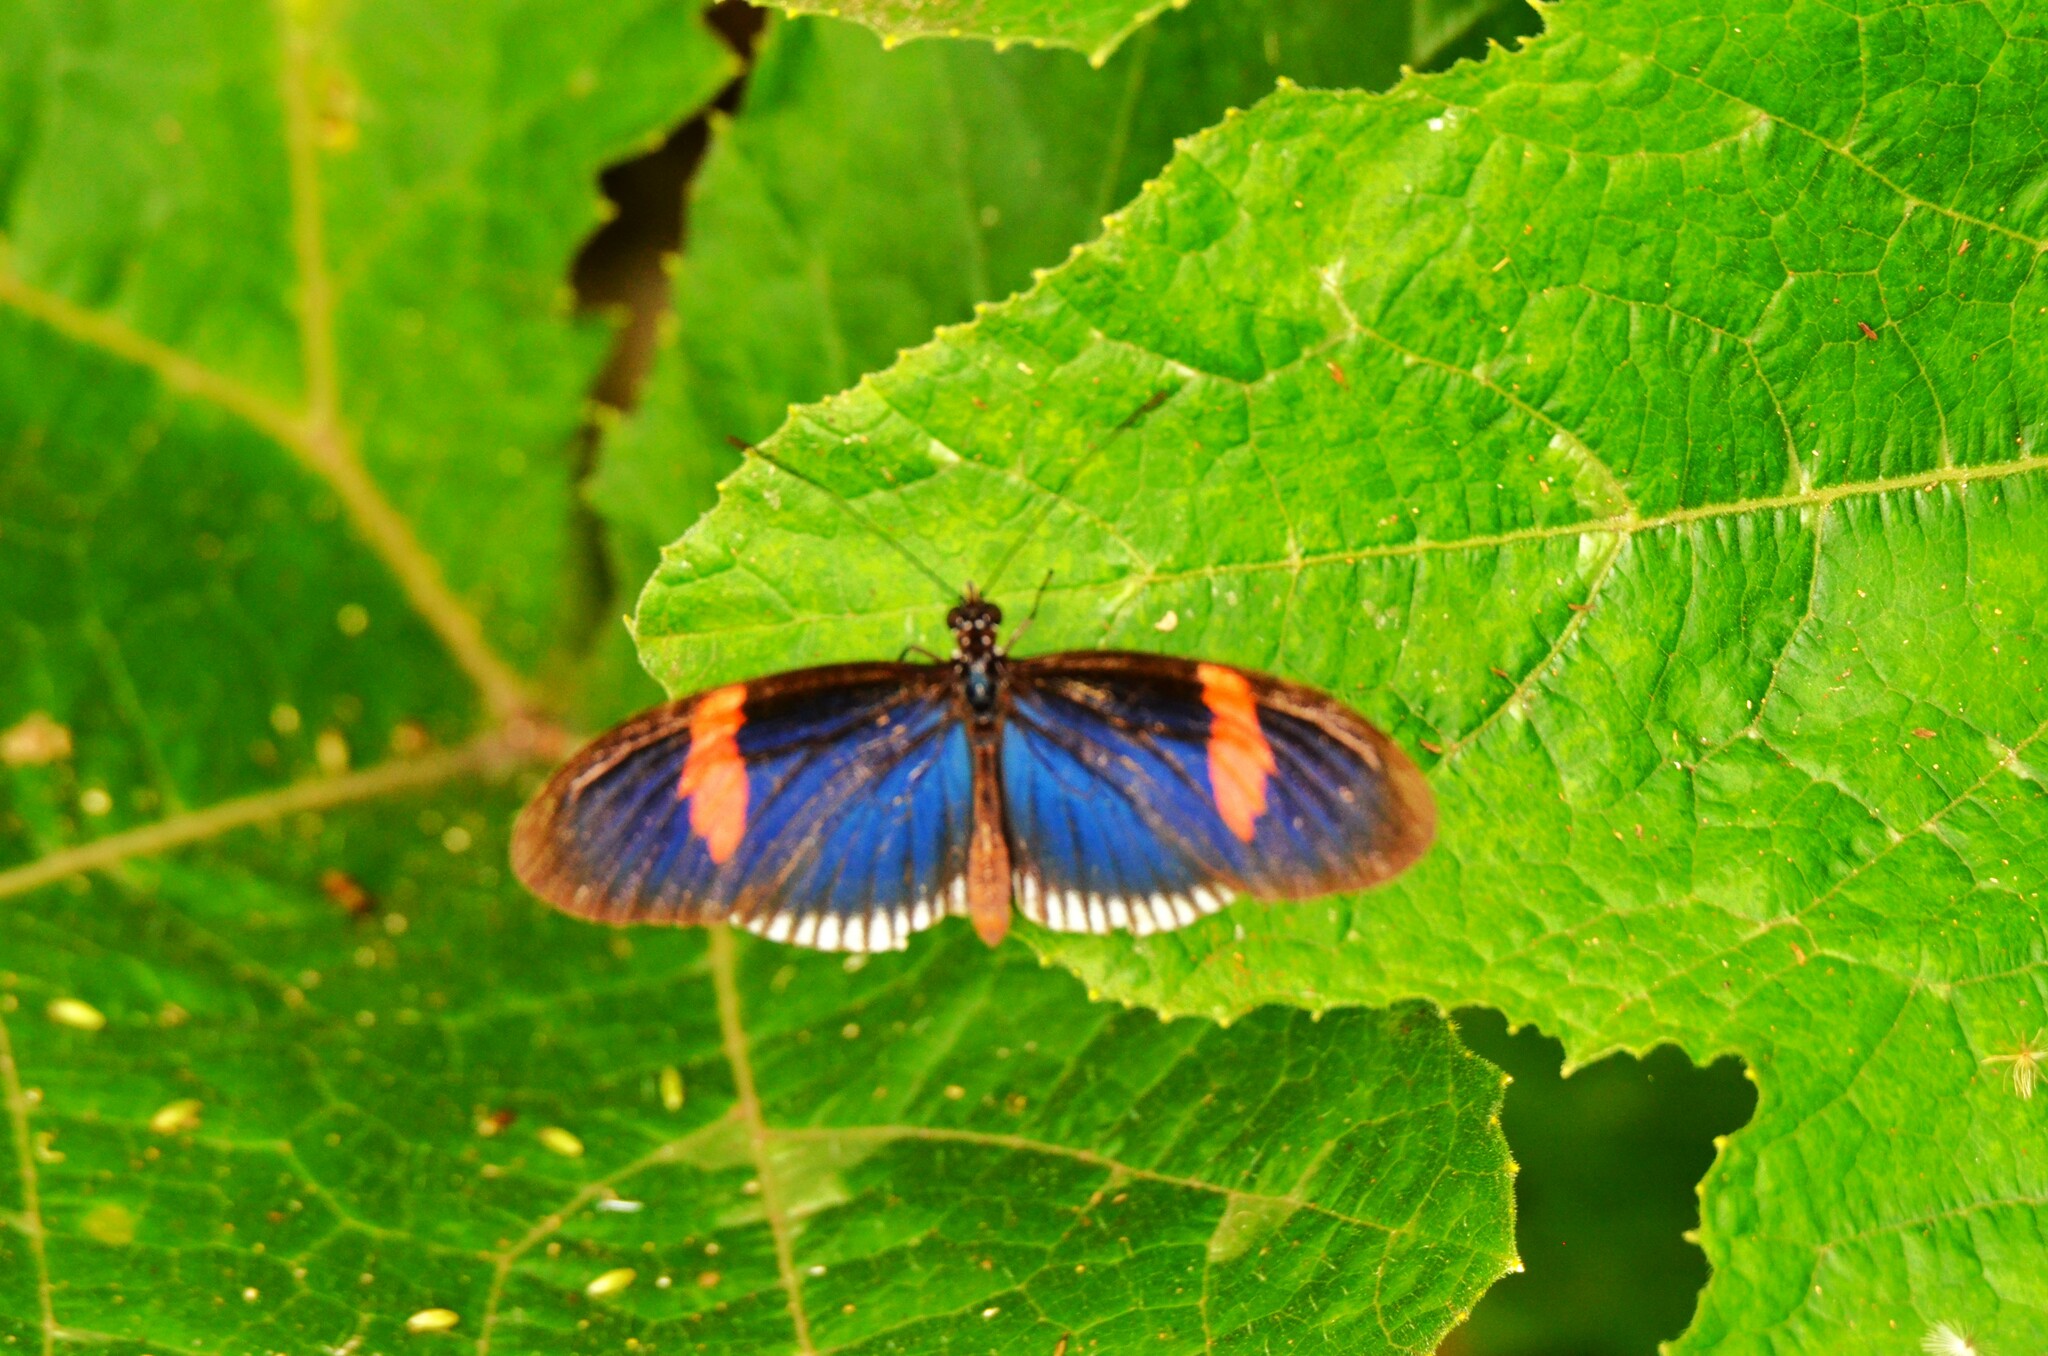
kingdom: Animalia
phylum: Arthropoda
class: Insecta
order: Lepidoptera
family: Nymphalidae
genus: Heliconius
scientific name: Heliconius erato
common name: Common patch longwing
